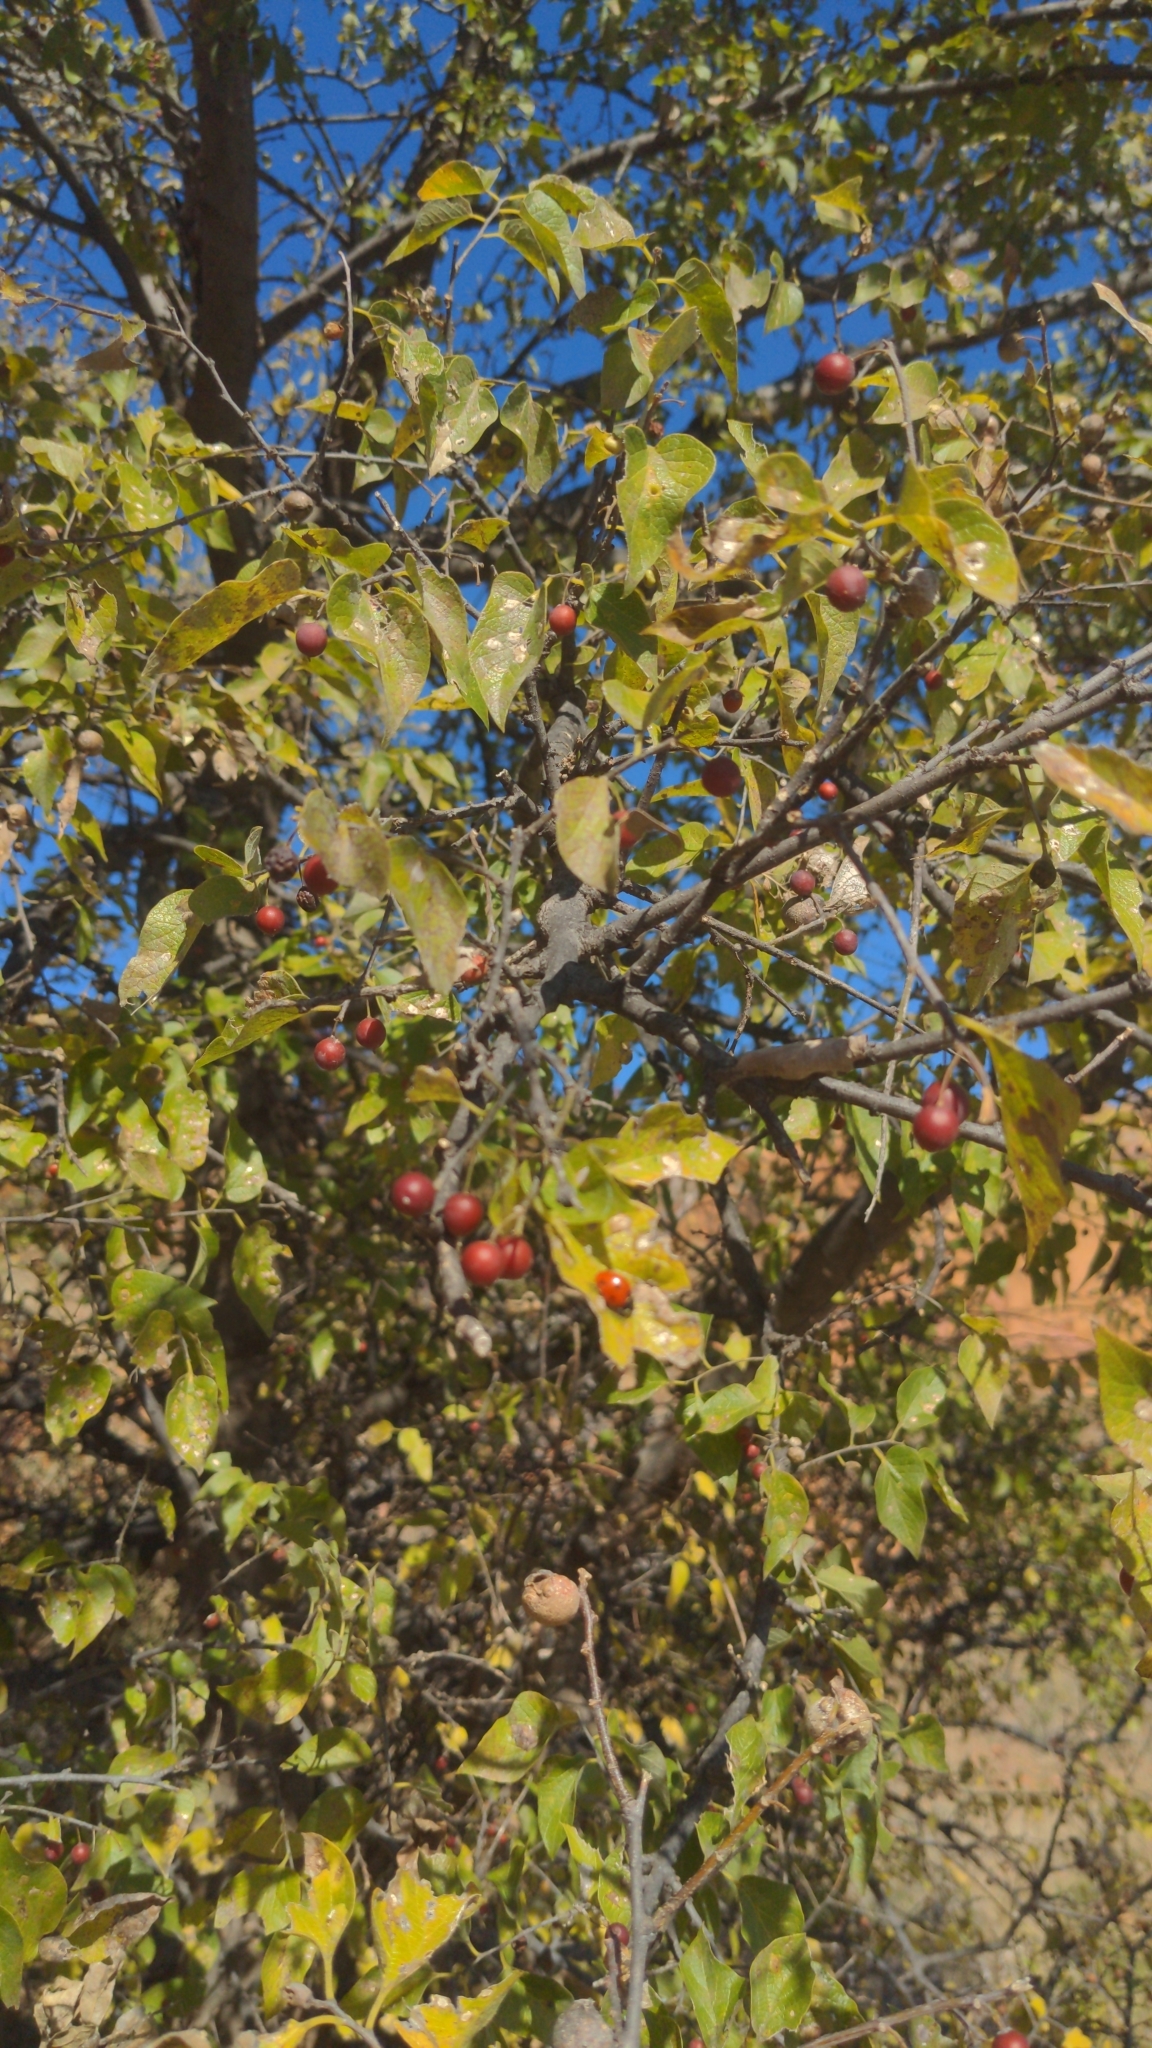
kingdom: Plantae
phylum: Tracheophyta
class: Magnoliopsida
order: Rosales
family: Cannabaceae
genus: Celtis
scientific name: Celtis reticulata
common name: Netleaf hackberry
